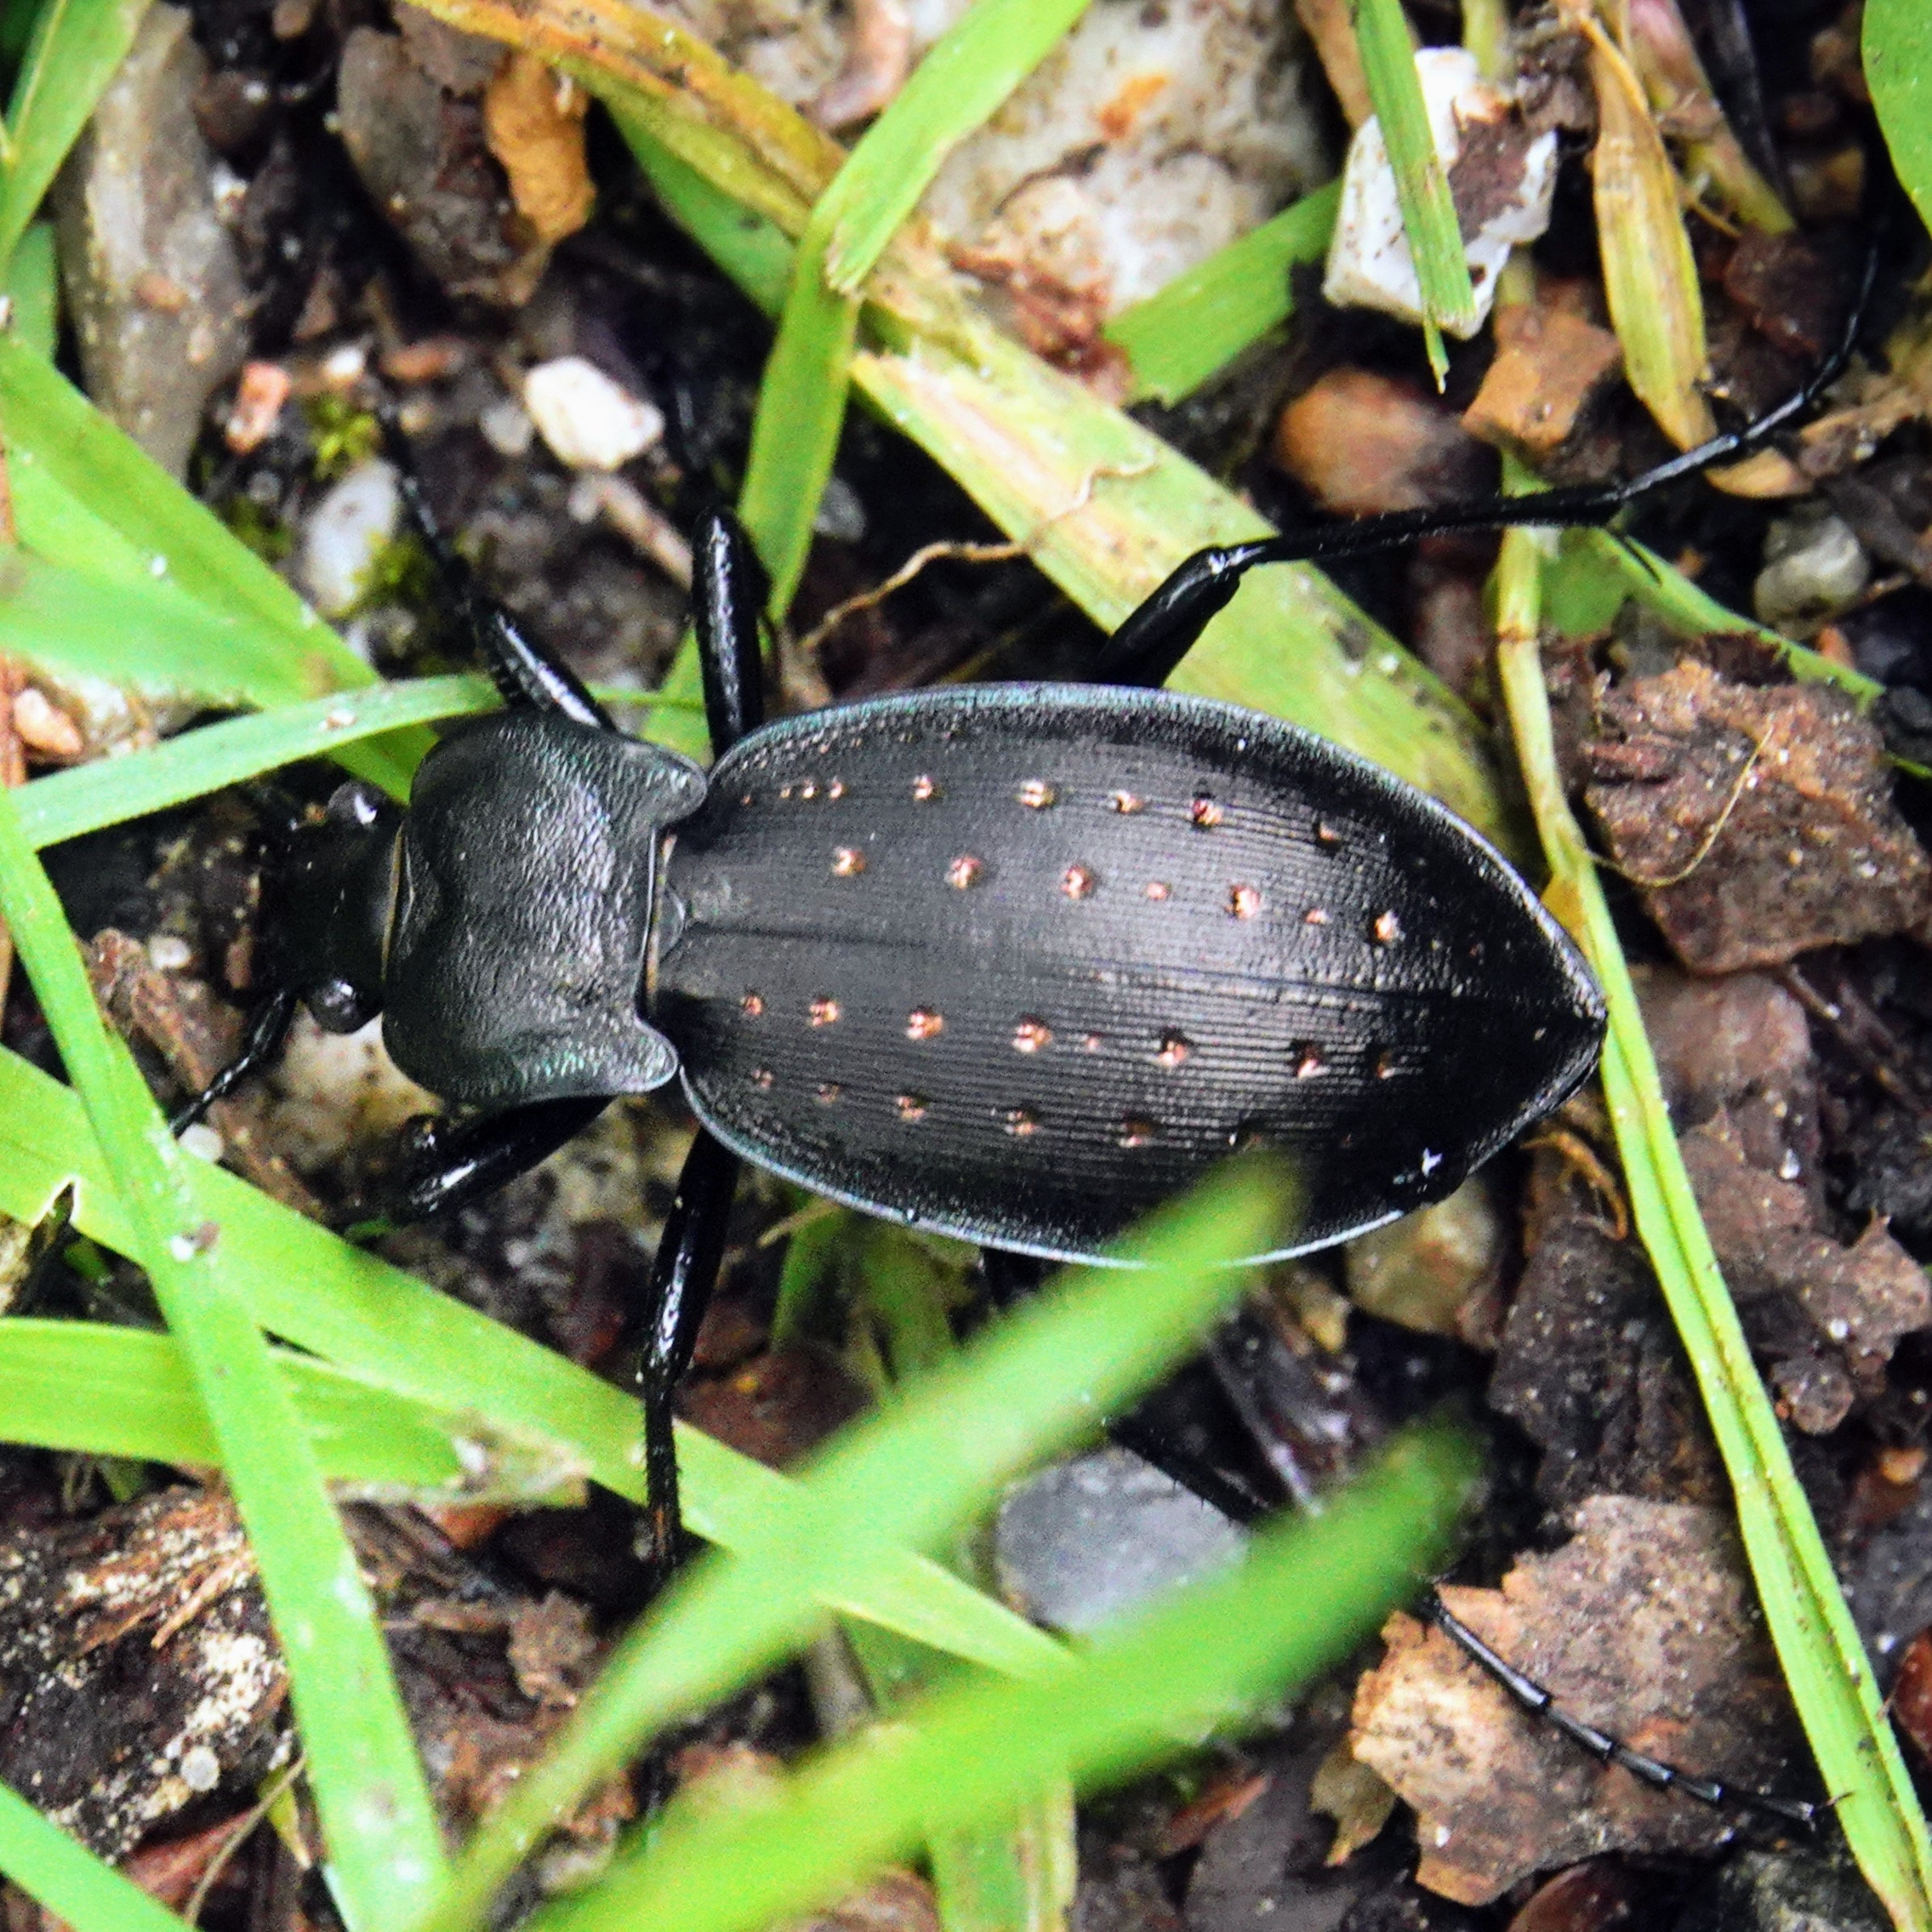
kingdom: Animalia
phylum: Arthropoda
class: Insecta
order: Coleoptera
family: Carabidae
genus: Carabus
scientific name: Carabus hortensis
